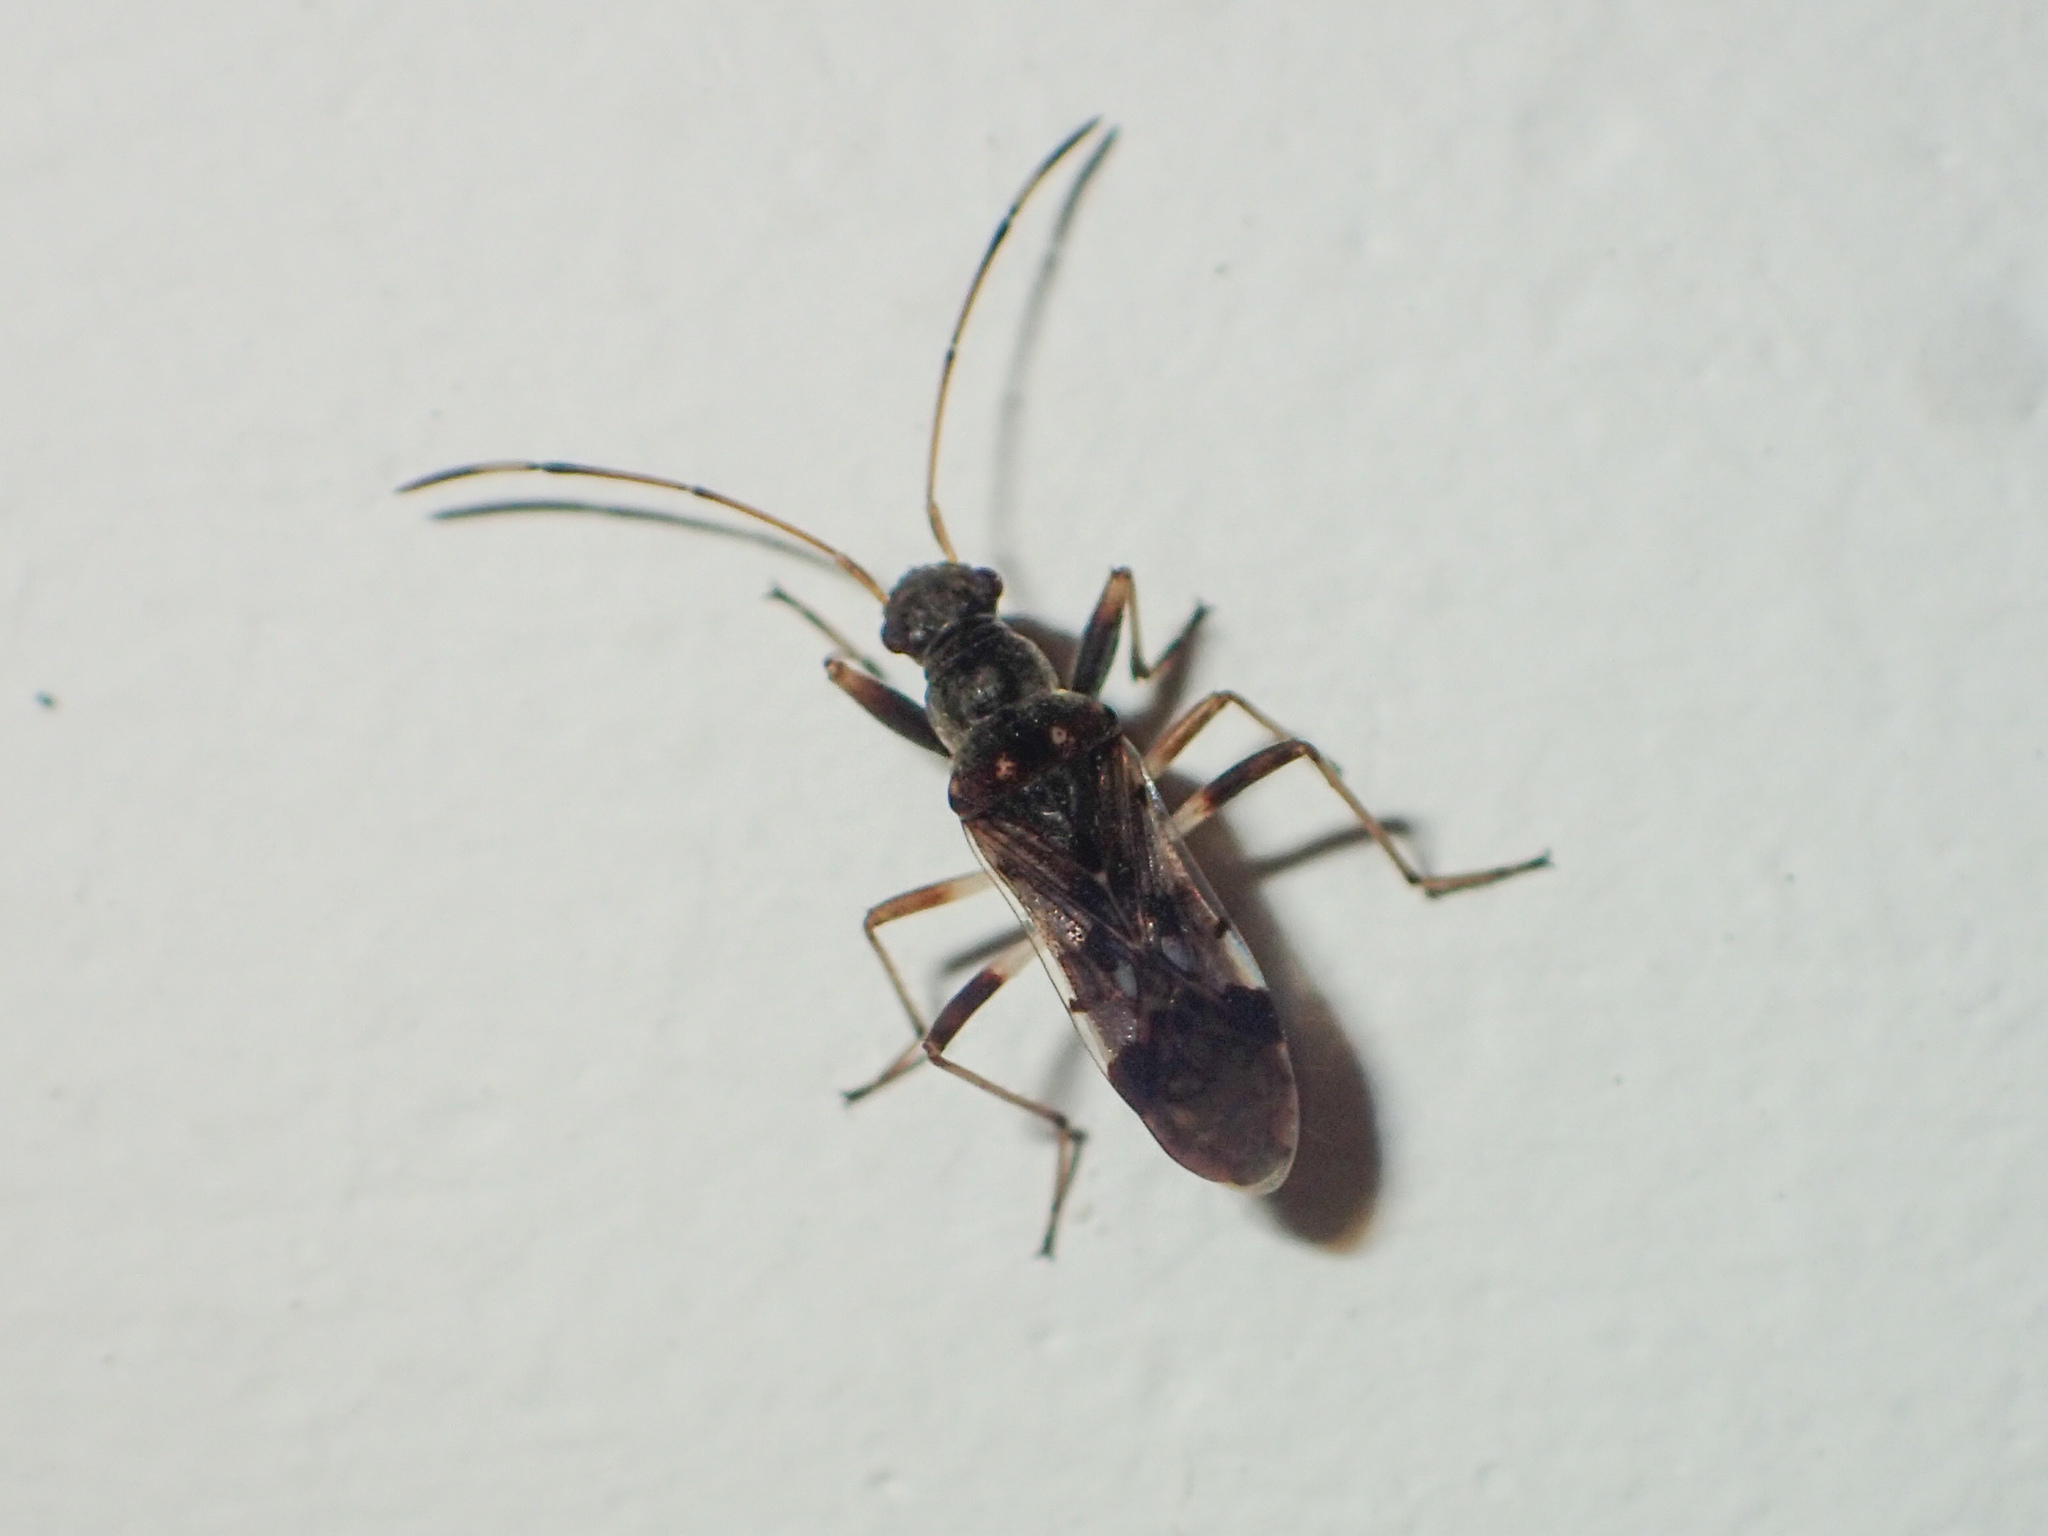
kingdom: Animalia
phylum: Arthropoda
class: Insecta
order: Hemiptera
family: Rhyparochromidae
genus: Gyndes
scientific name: Gyndes pallicornis
